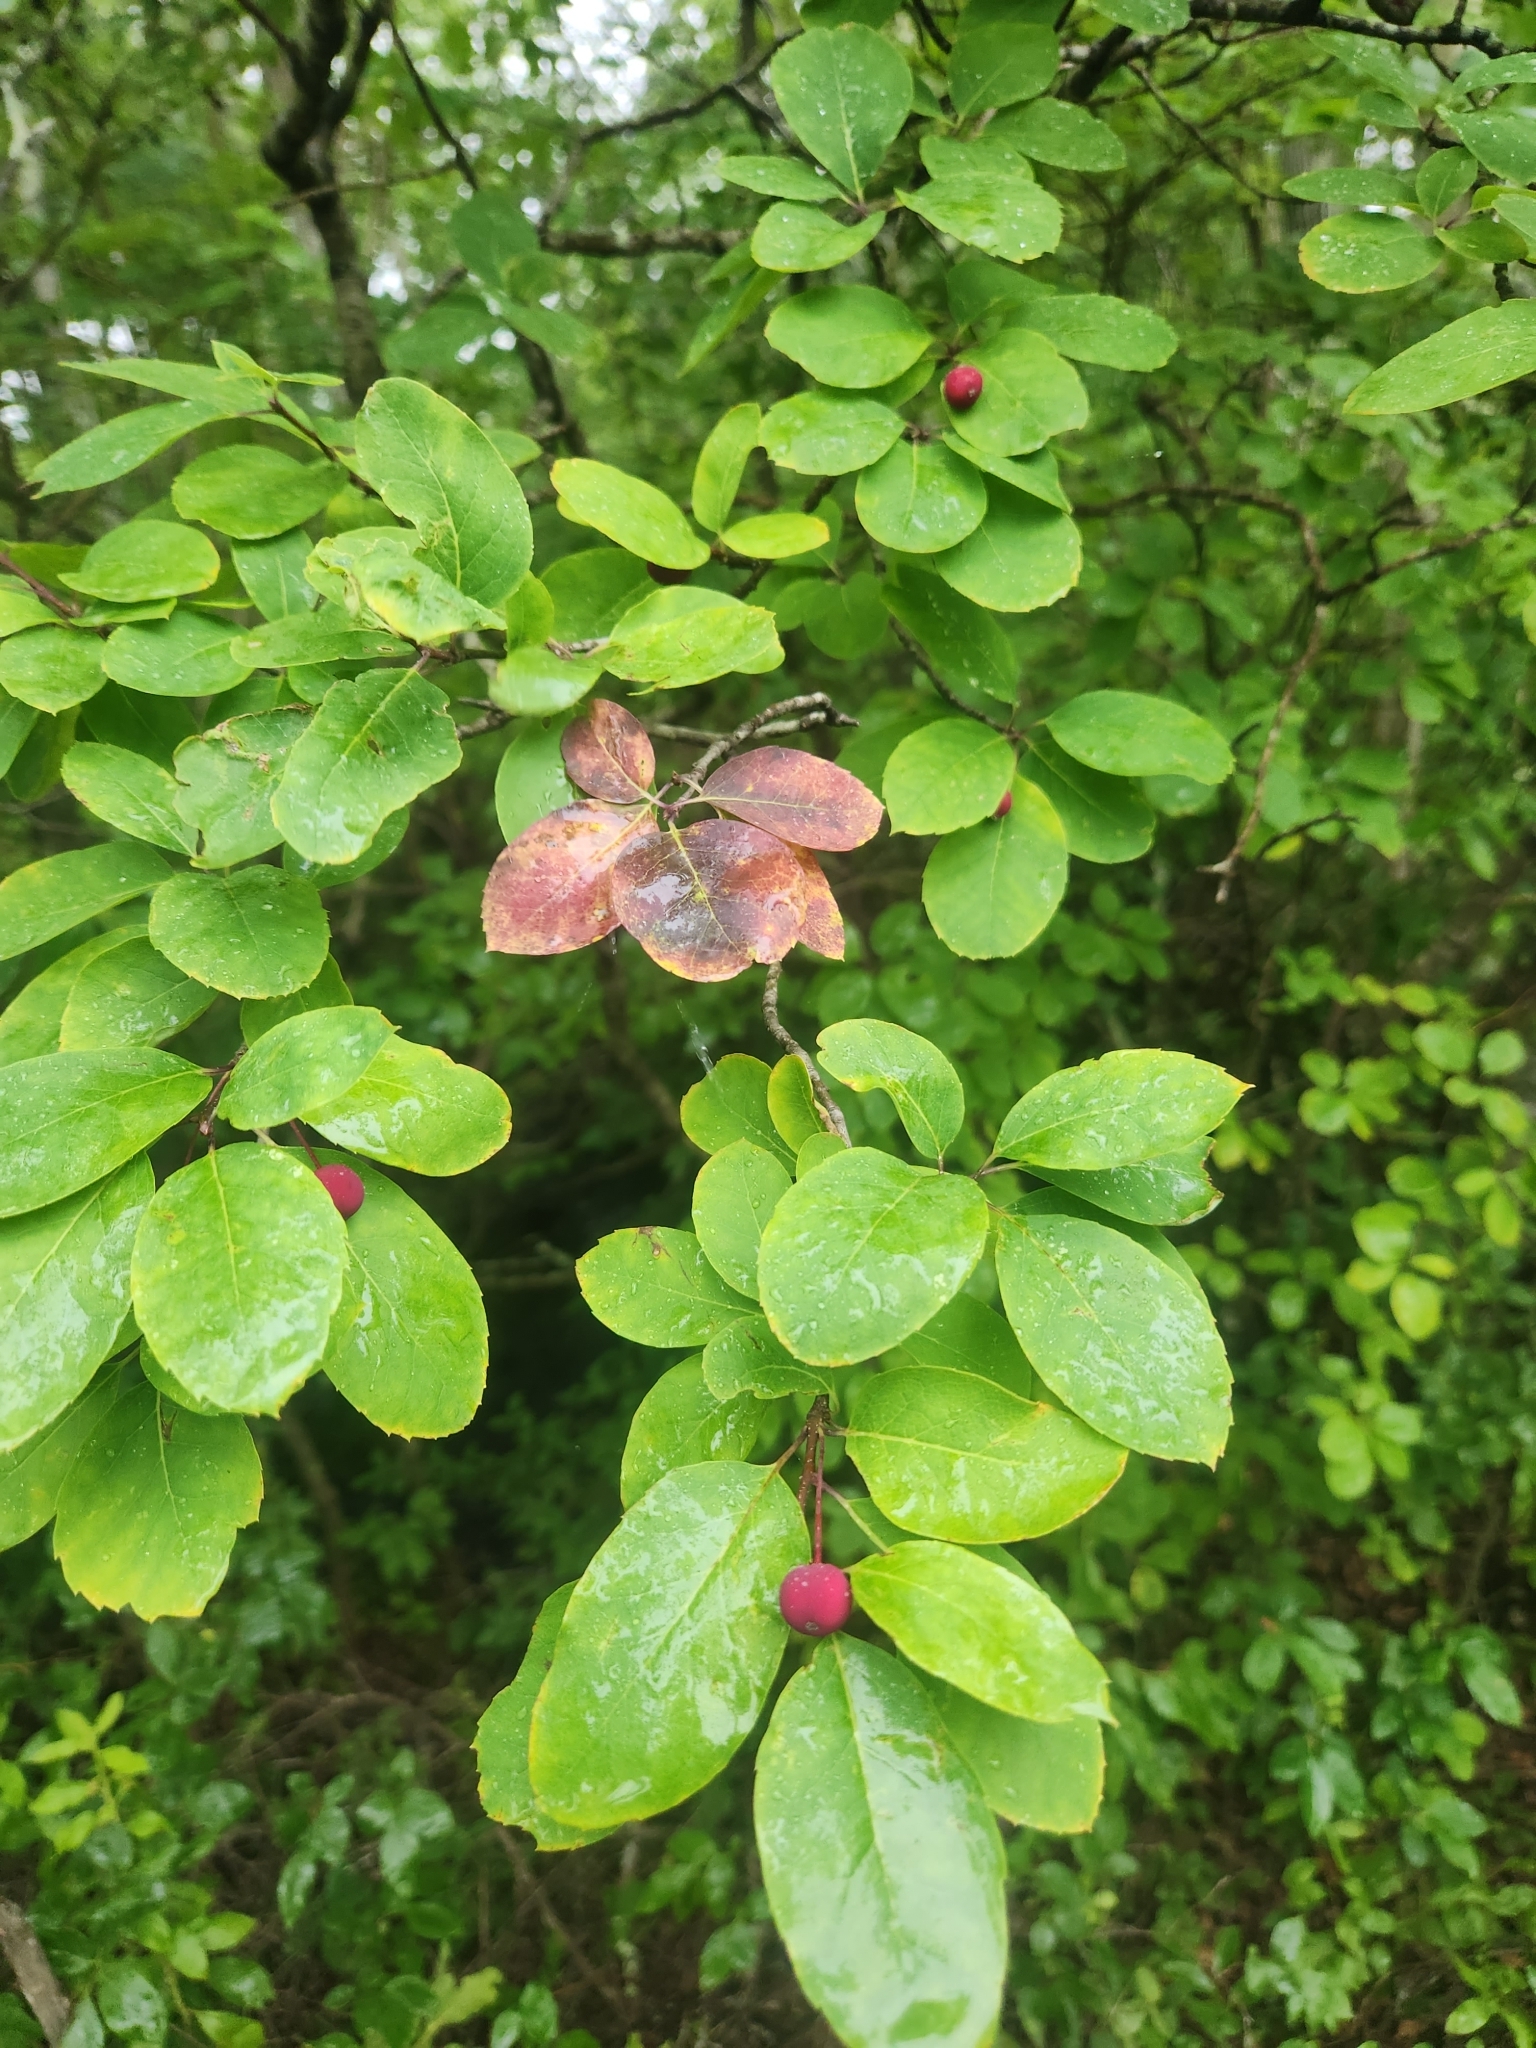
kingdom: Plantae
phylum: Tracheophyta
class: Magnoliopsida
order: Aquifoliales
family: Aquifoliaceae
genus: Ilex
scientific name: Ilex mucronata
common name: Catberry
